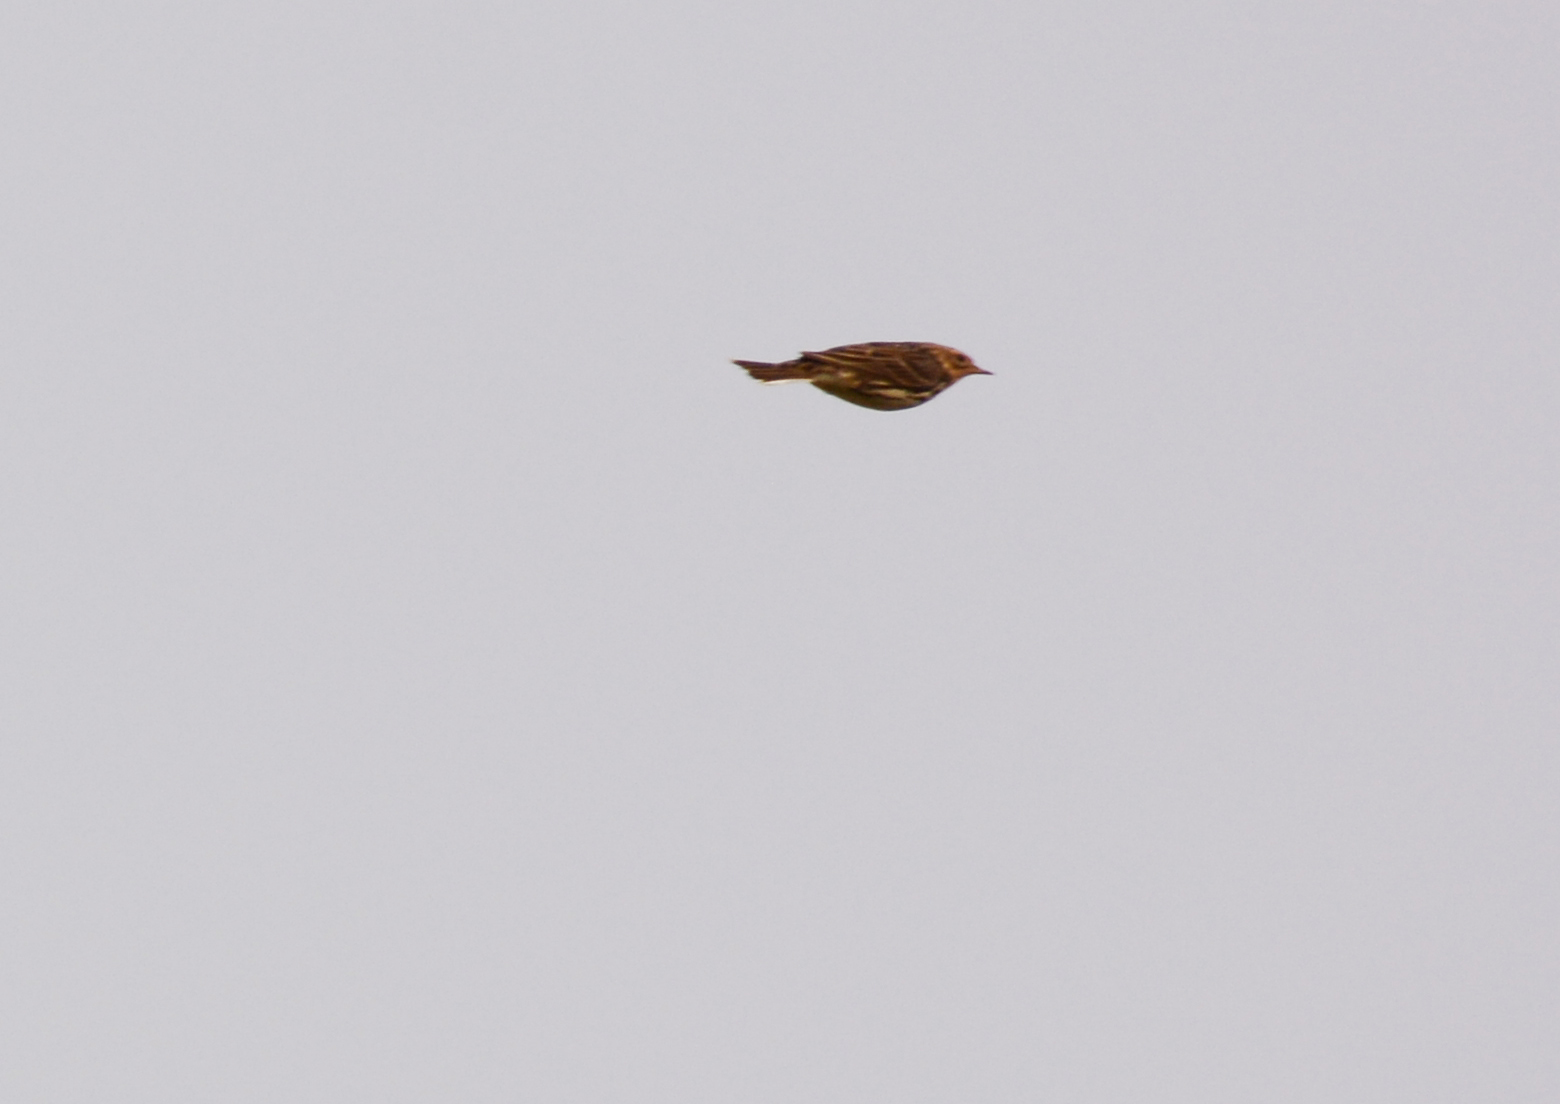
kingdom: Animalia
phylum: Chordata
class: Aves
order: Passeriformes
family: Motacillidae
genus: Anthus
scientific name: Anthus cervinus
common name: Red-throated pipit
